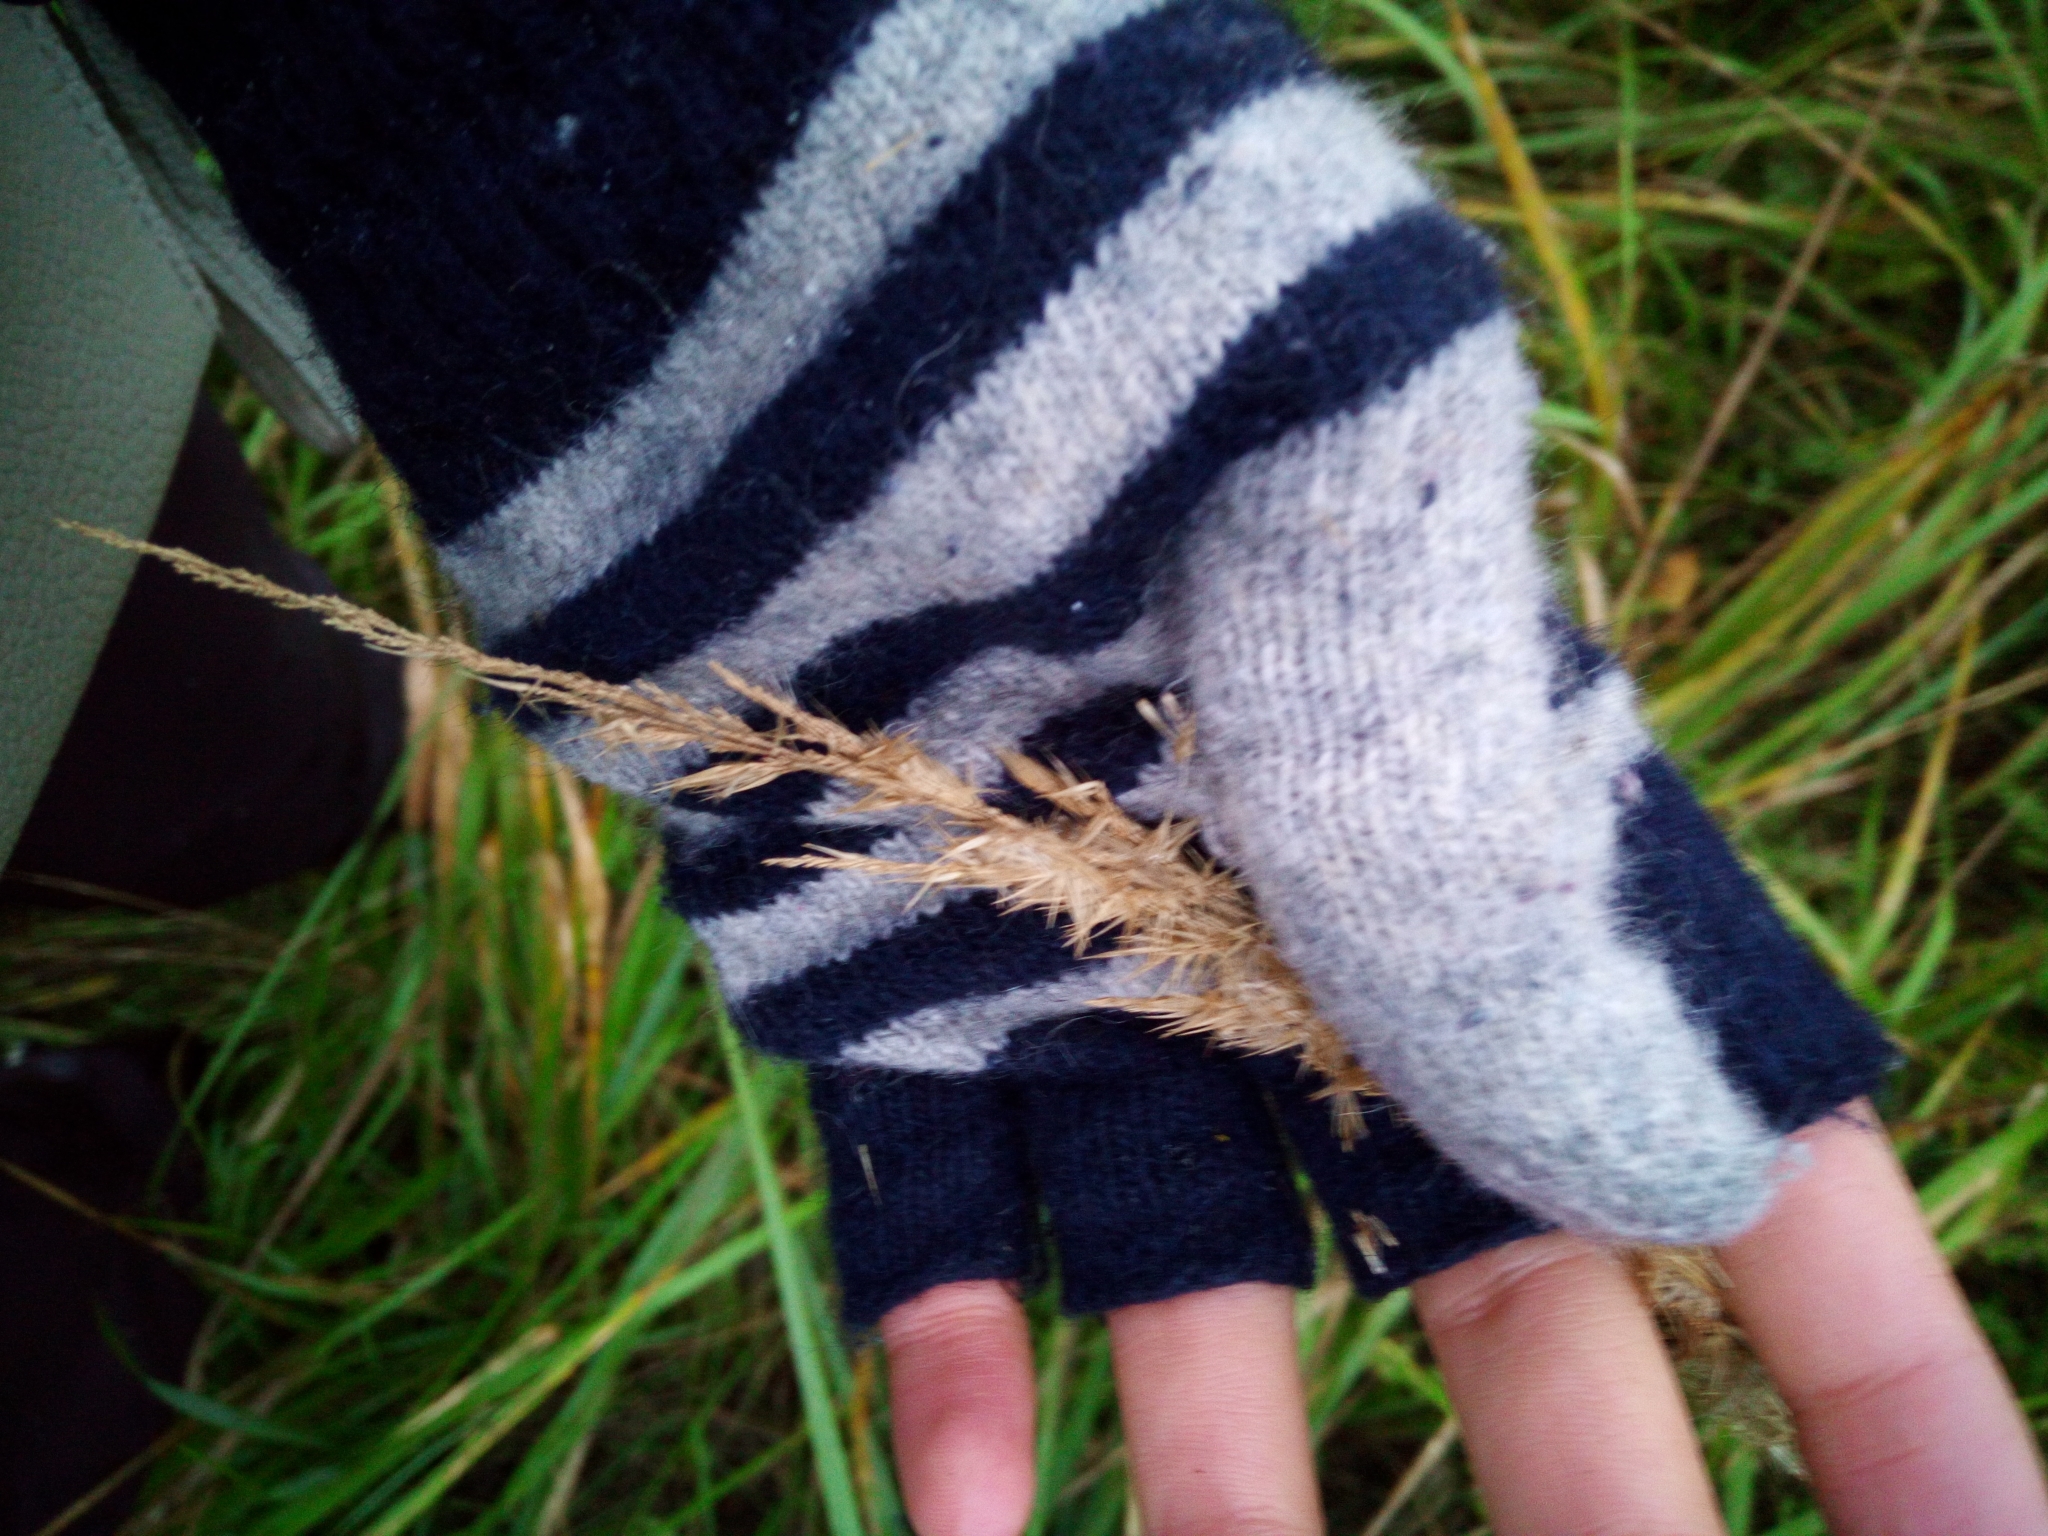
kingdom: Plantae
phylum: Tracheophyta
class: Liliopsida
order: Poales
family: Poaceae
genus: Calamagrostis
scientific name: Calamagrostis epigejos
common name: Wood small-reed
